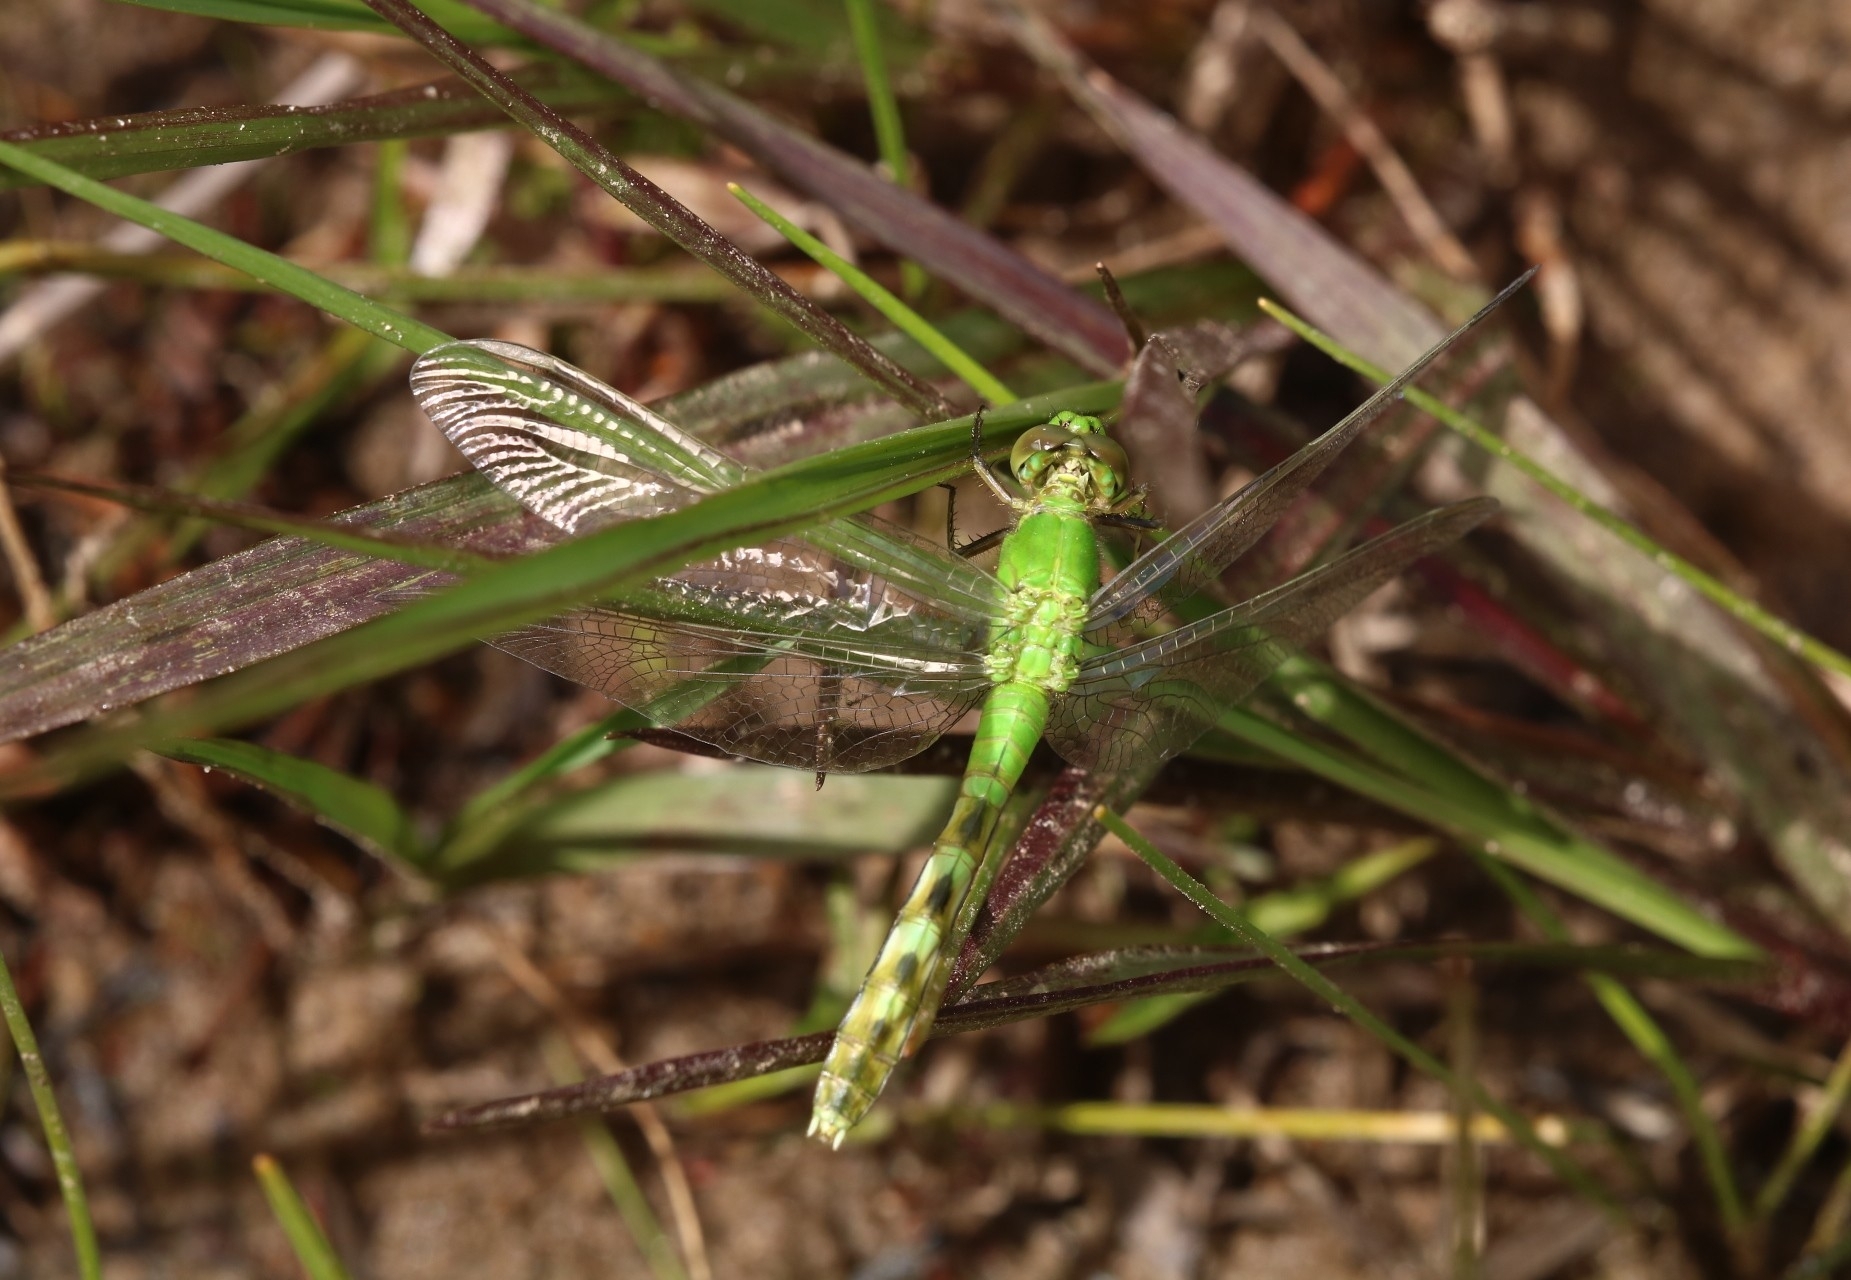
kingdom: Animalia
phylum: Arthropoda
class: Insecta
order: Odonata
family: Libellulidae
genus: Erythemis
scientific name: Erythemis simplicicollis
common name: Eastern pondhawk
